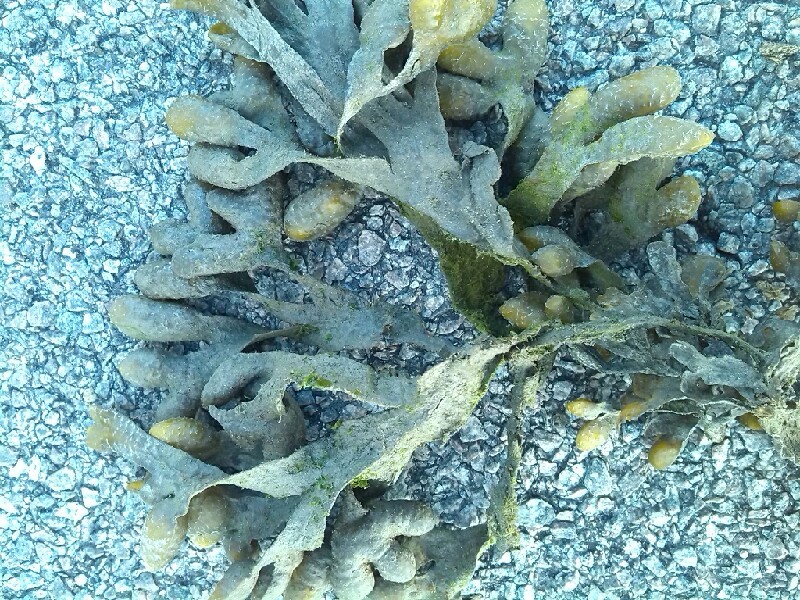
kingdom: Chromista
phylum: Ochrophyta
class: Phaeophyceae
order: Fucales
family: Fucaceae
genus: Fucus
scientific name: Fucus spiralis
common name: Spiral wrack
